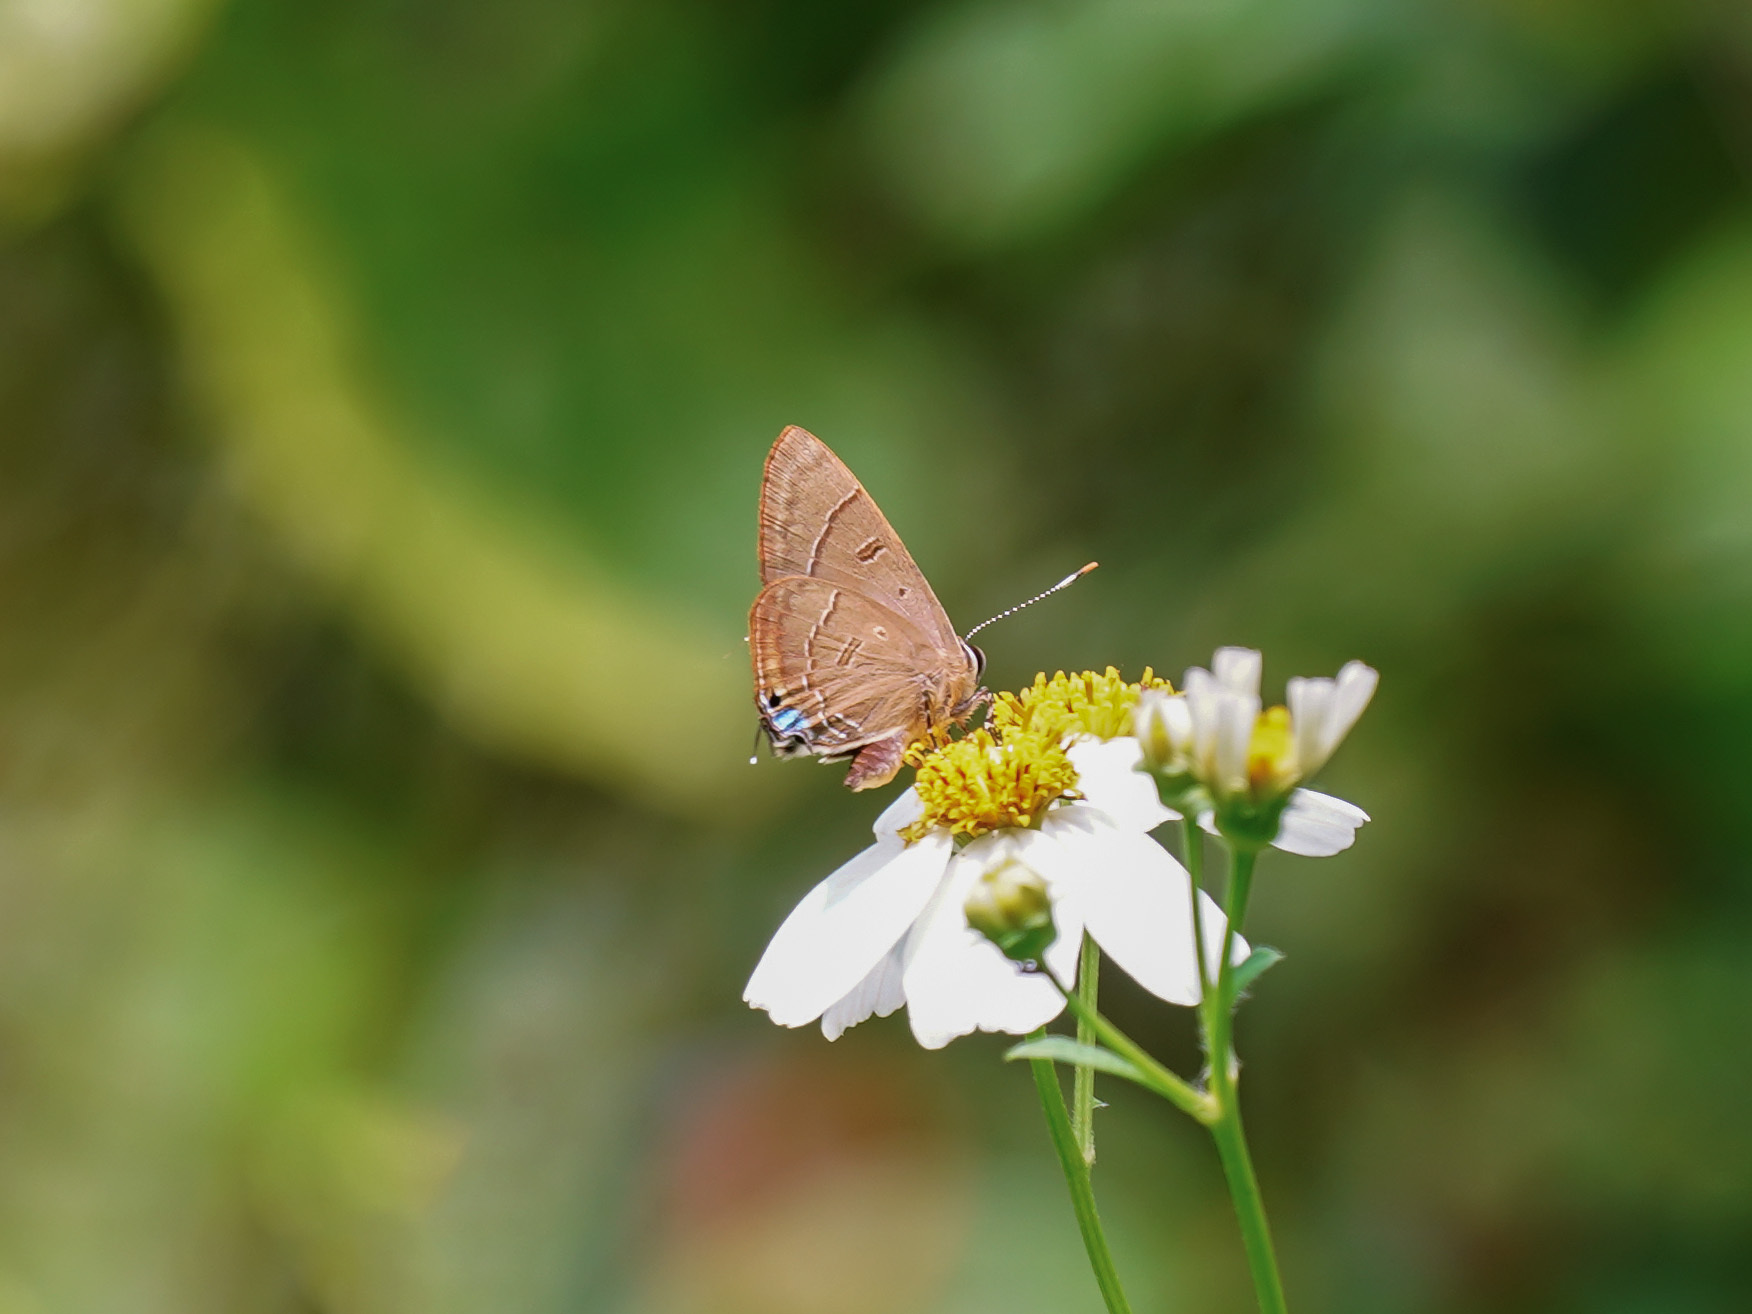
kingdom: Animalia
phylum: Arthropoda
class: Insecta
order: Lepidoptera
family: Lycaenidae
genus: Rapala
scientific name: Rapala pheretima
